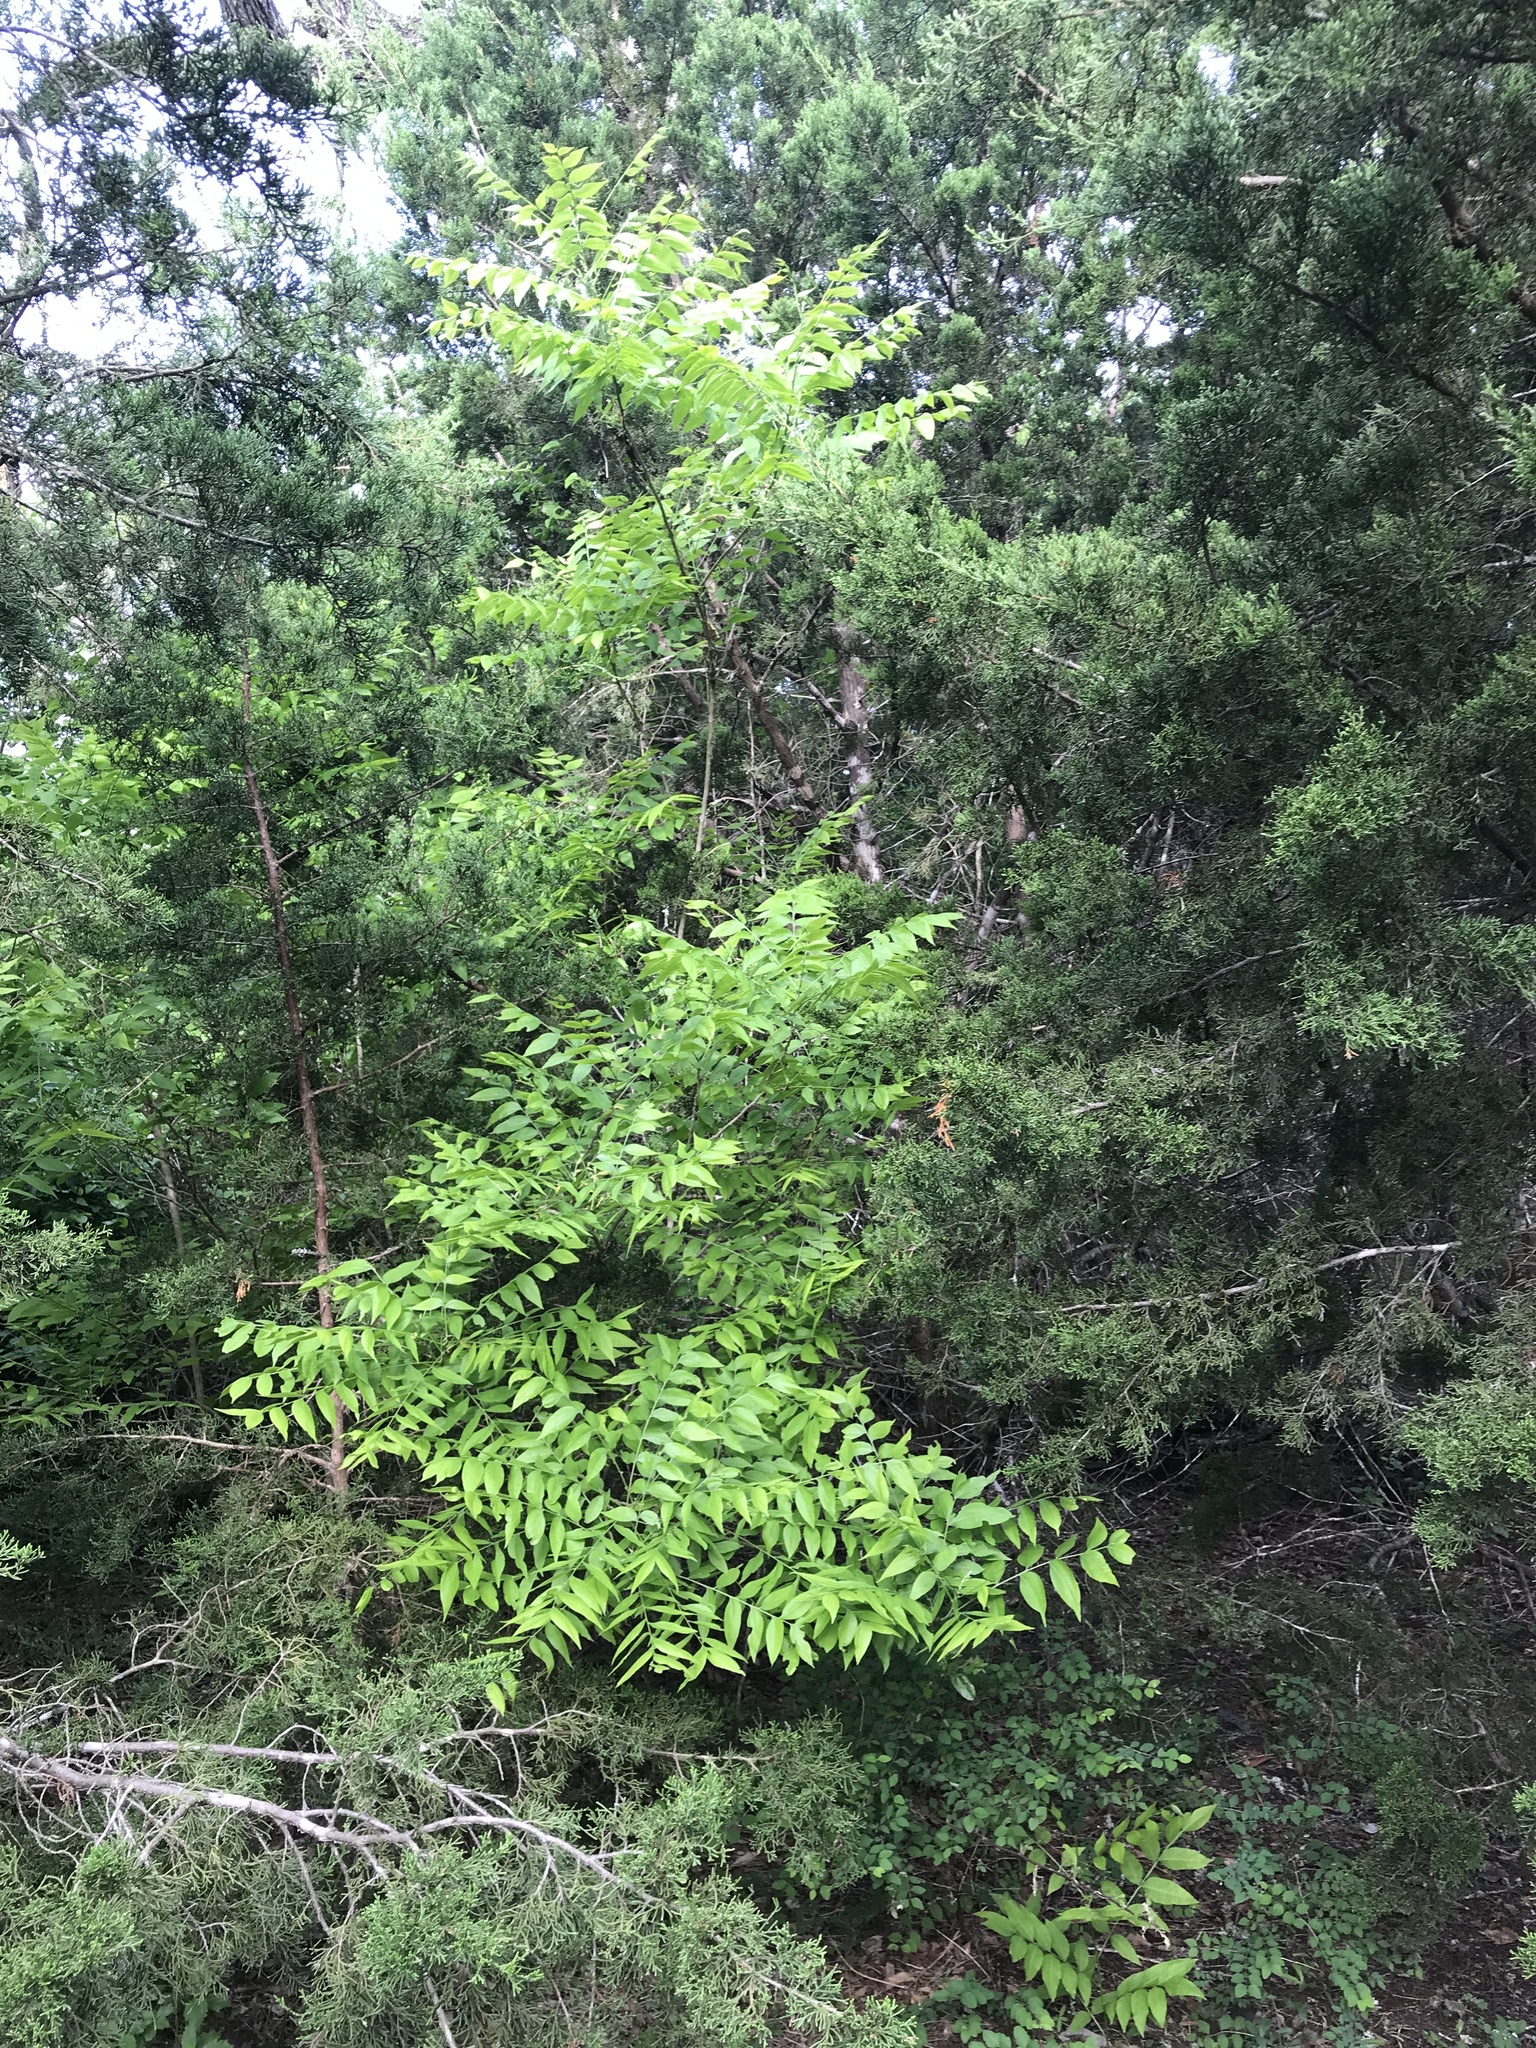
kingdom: Plantae
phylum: Tracheophyta
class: Magnoliopsida
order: Sapindales
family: Sapindaceae
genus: Sapindus
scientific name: Sapindus drummondii
